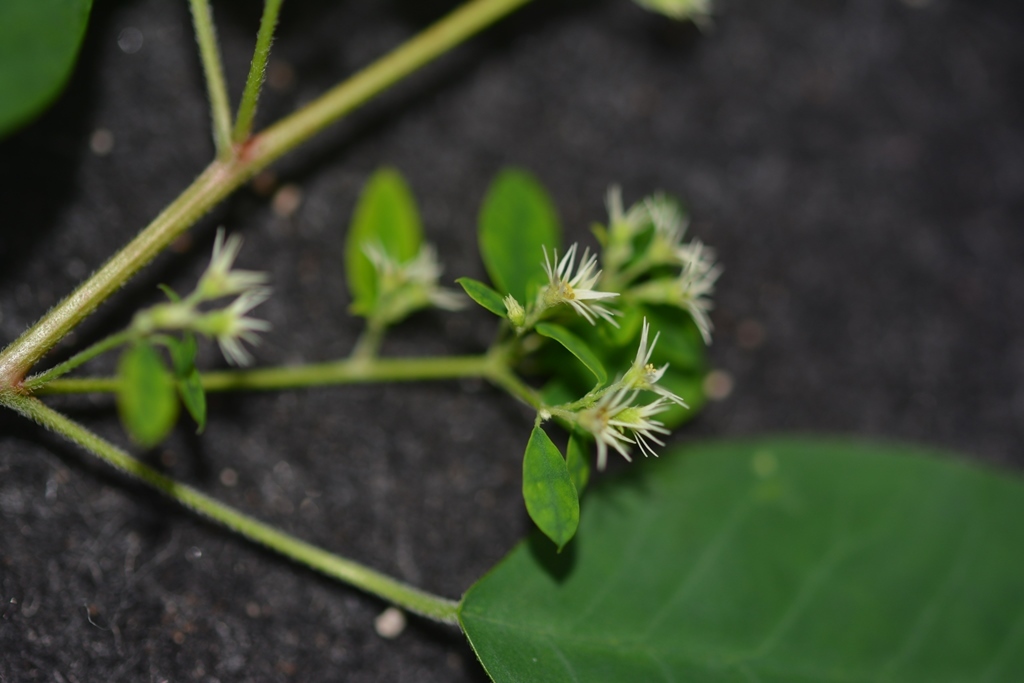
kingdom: Plantae
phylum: Tracheophyta
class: Magnoliopsida
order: Malpighiales
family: Euphorbiaceae
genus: Euphorbia
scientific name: Euphorbia segoviensis
